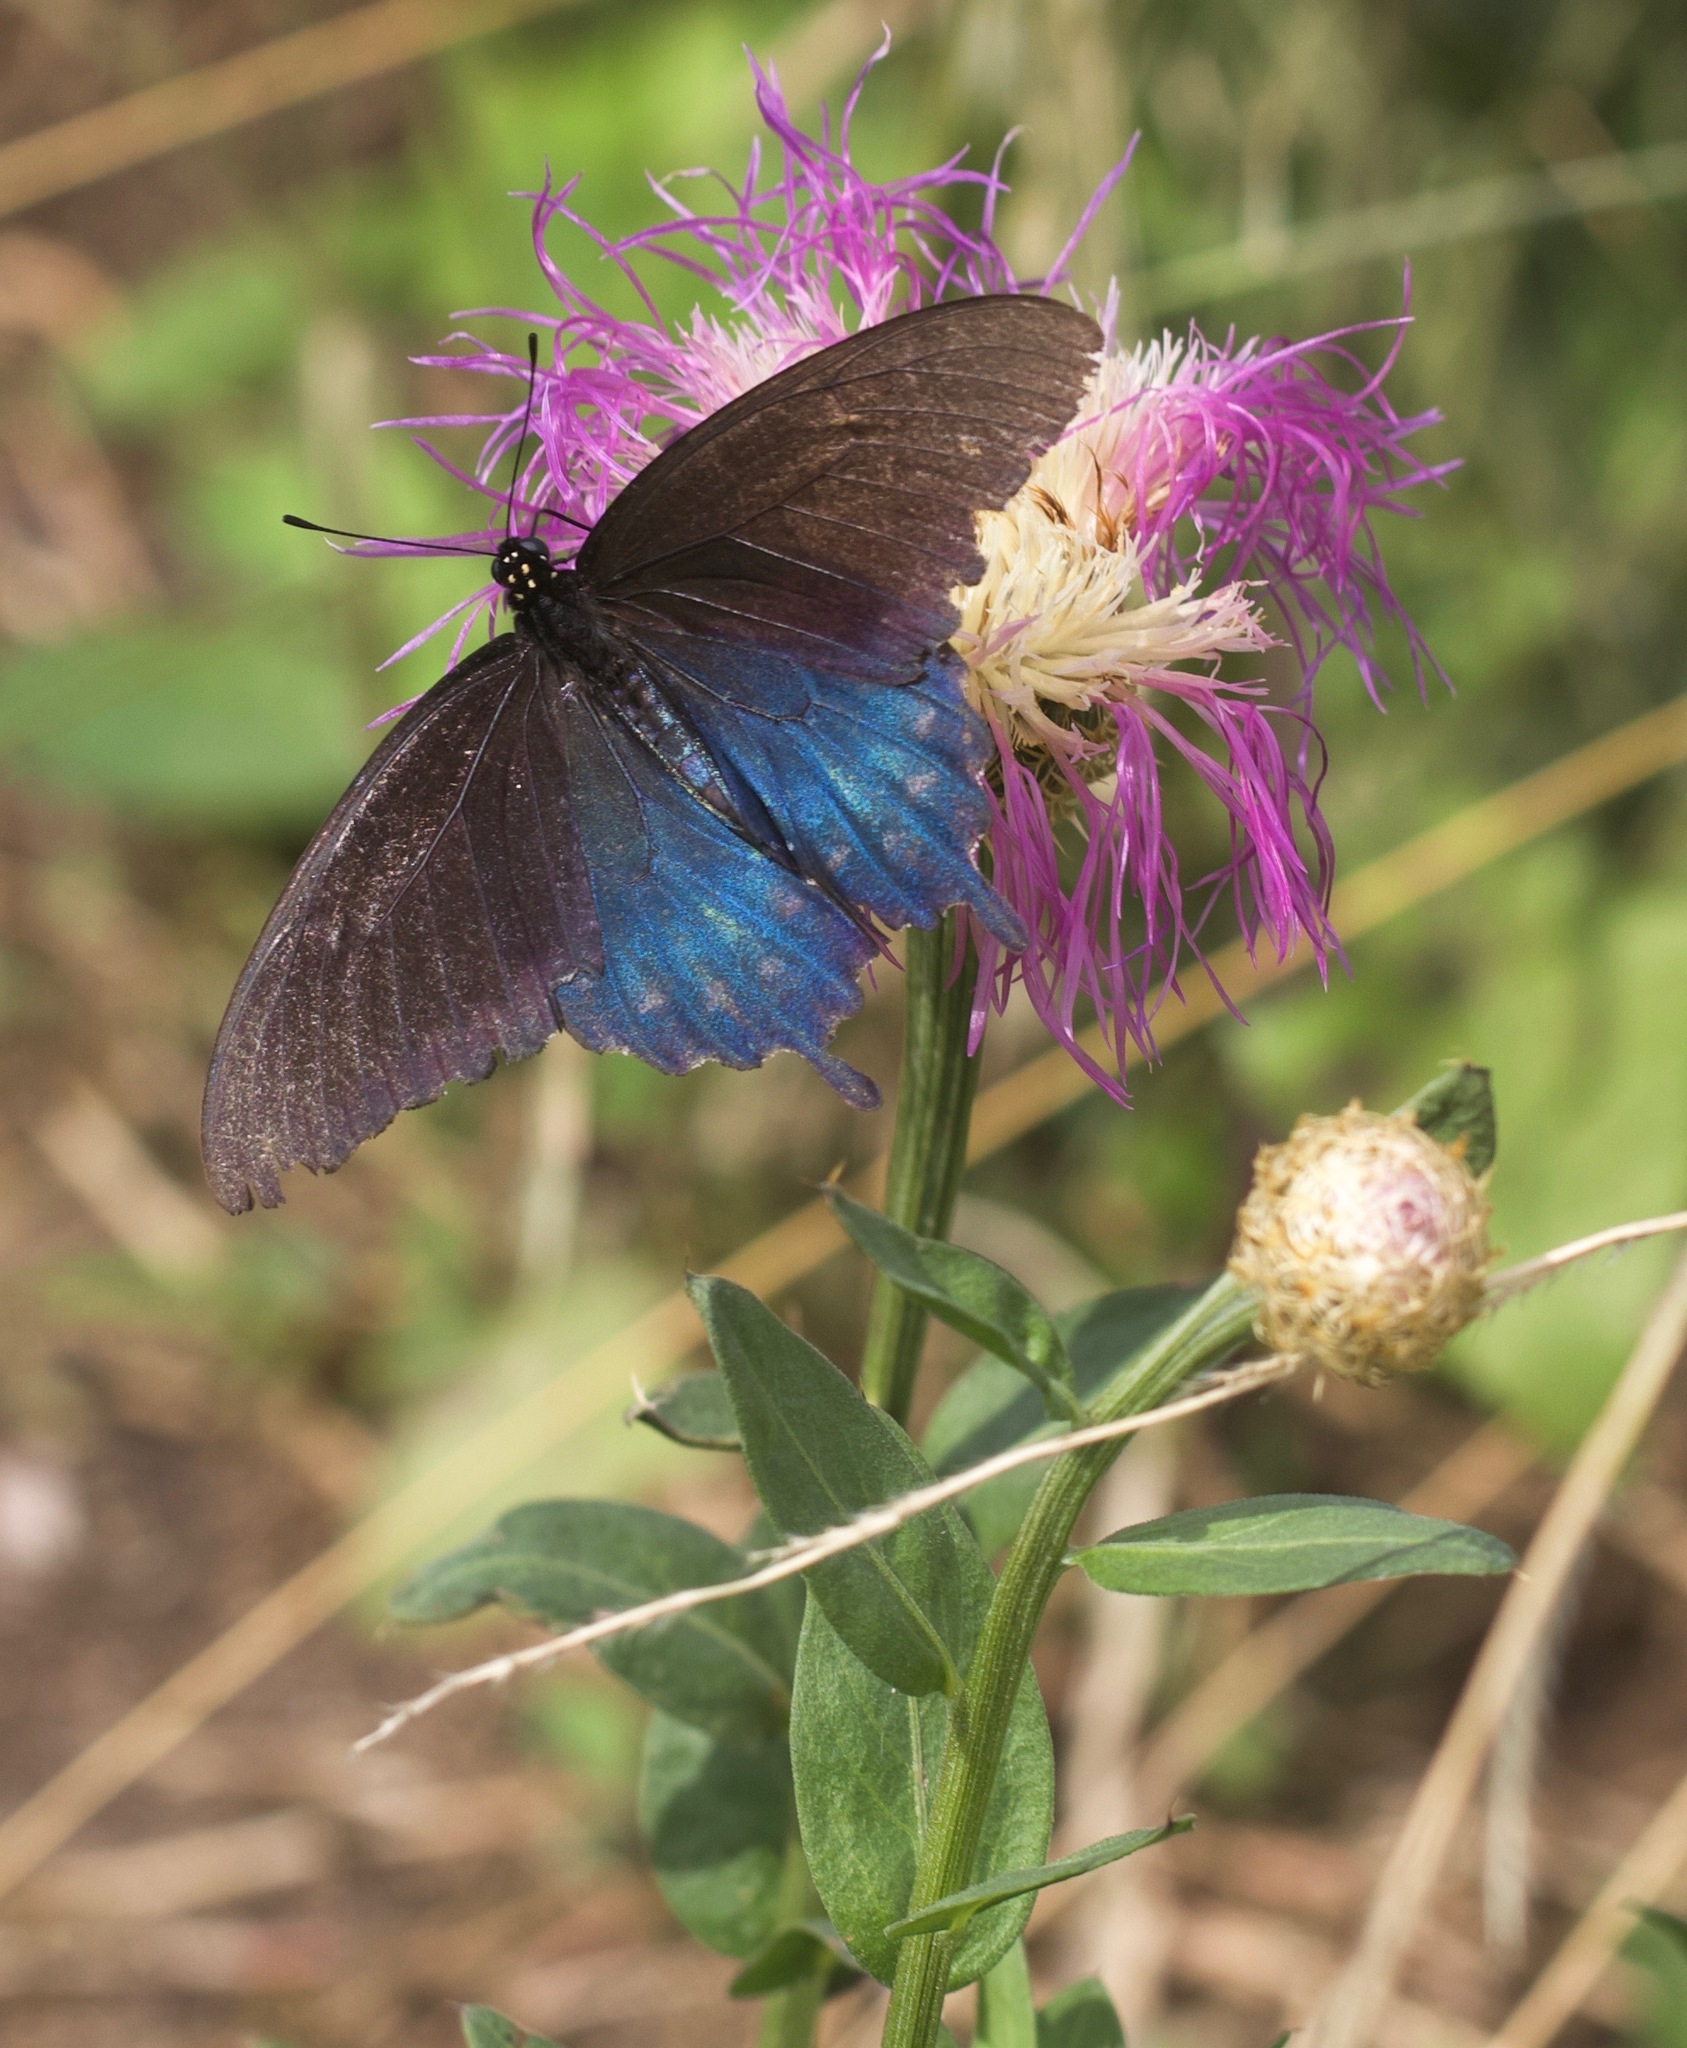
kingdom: Animalia
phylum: Arthropoda
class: Insecta
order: Lepidoptera
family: Papilionidae
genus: Battus
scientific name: Battus philenor
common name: Pipevine swallowtail
